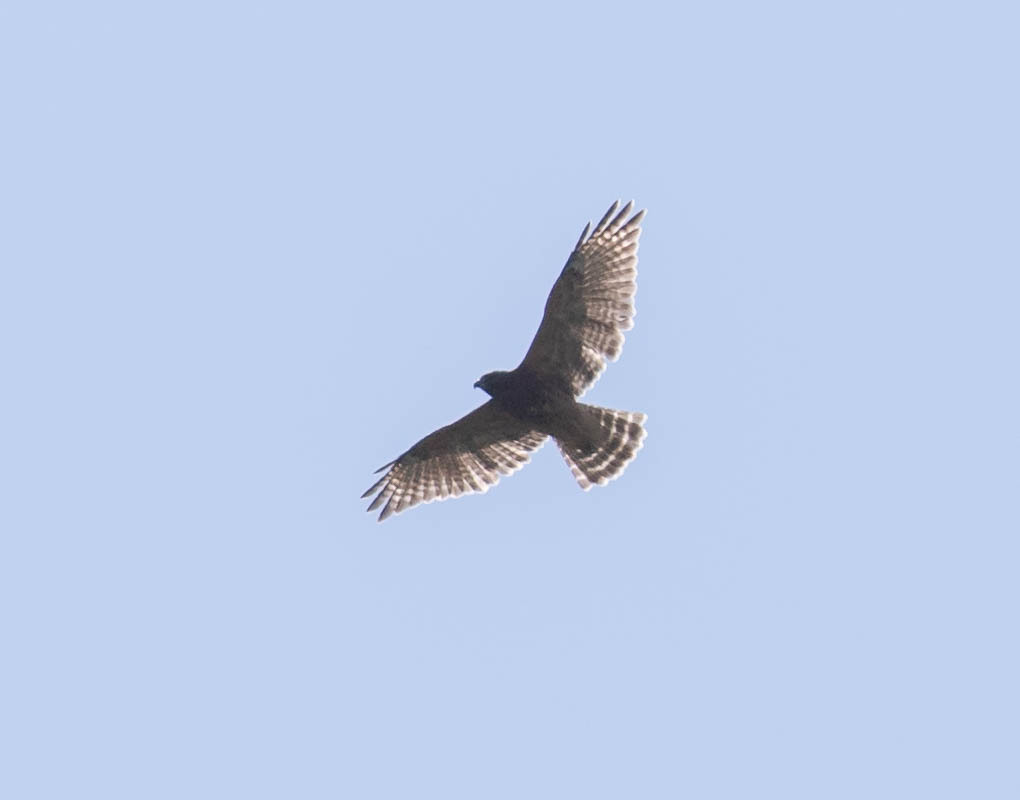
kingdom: Animalia
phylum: Chordata
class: Aves
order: Accipitriformes
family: Accipitridae
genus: Buteo
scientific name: Buteo lineatus
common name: Red-shouldered hawk
